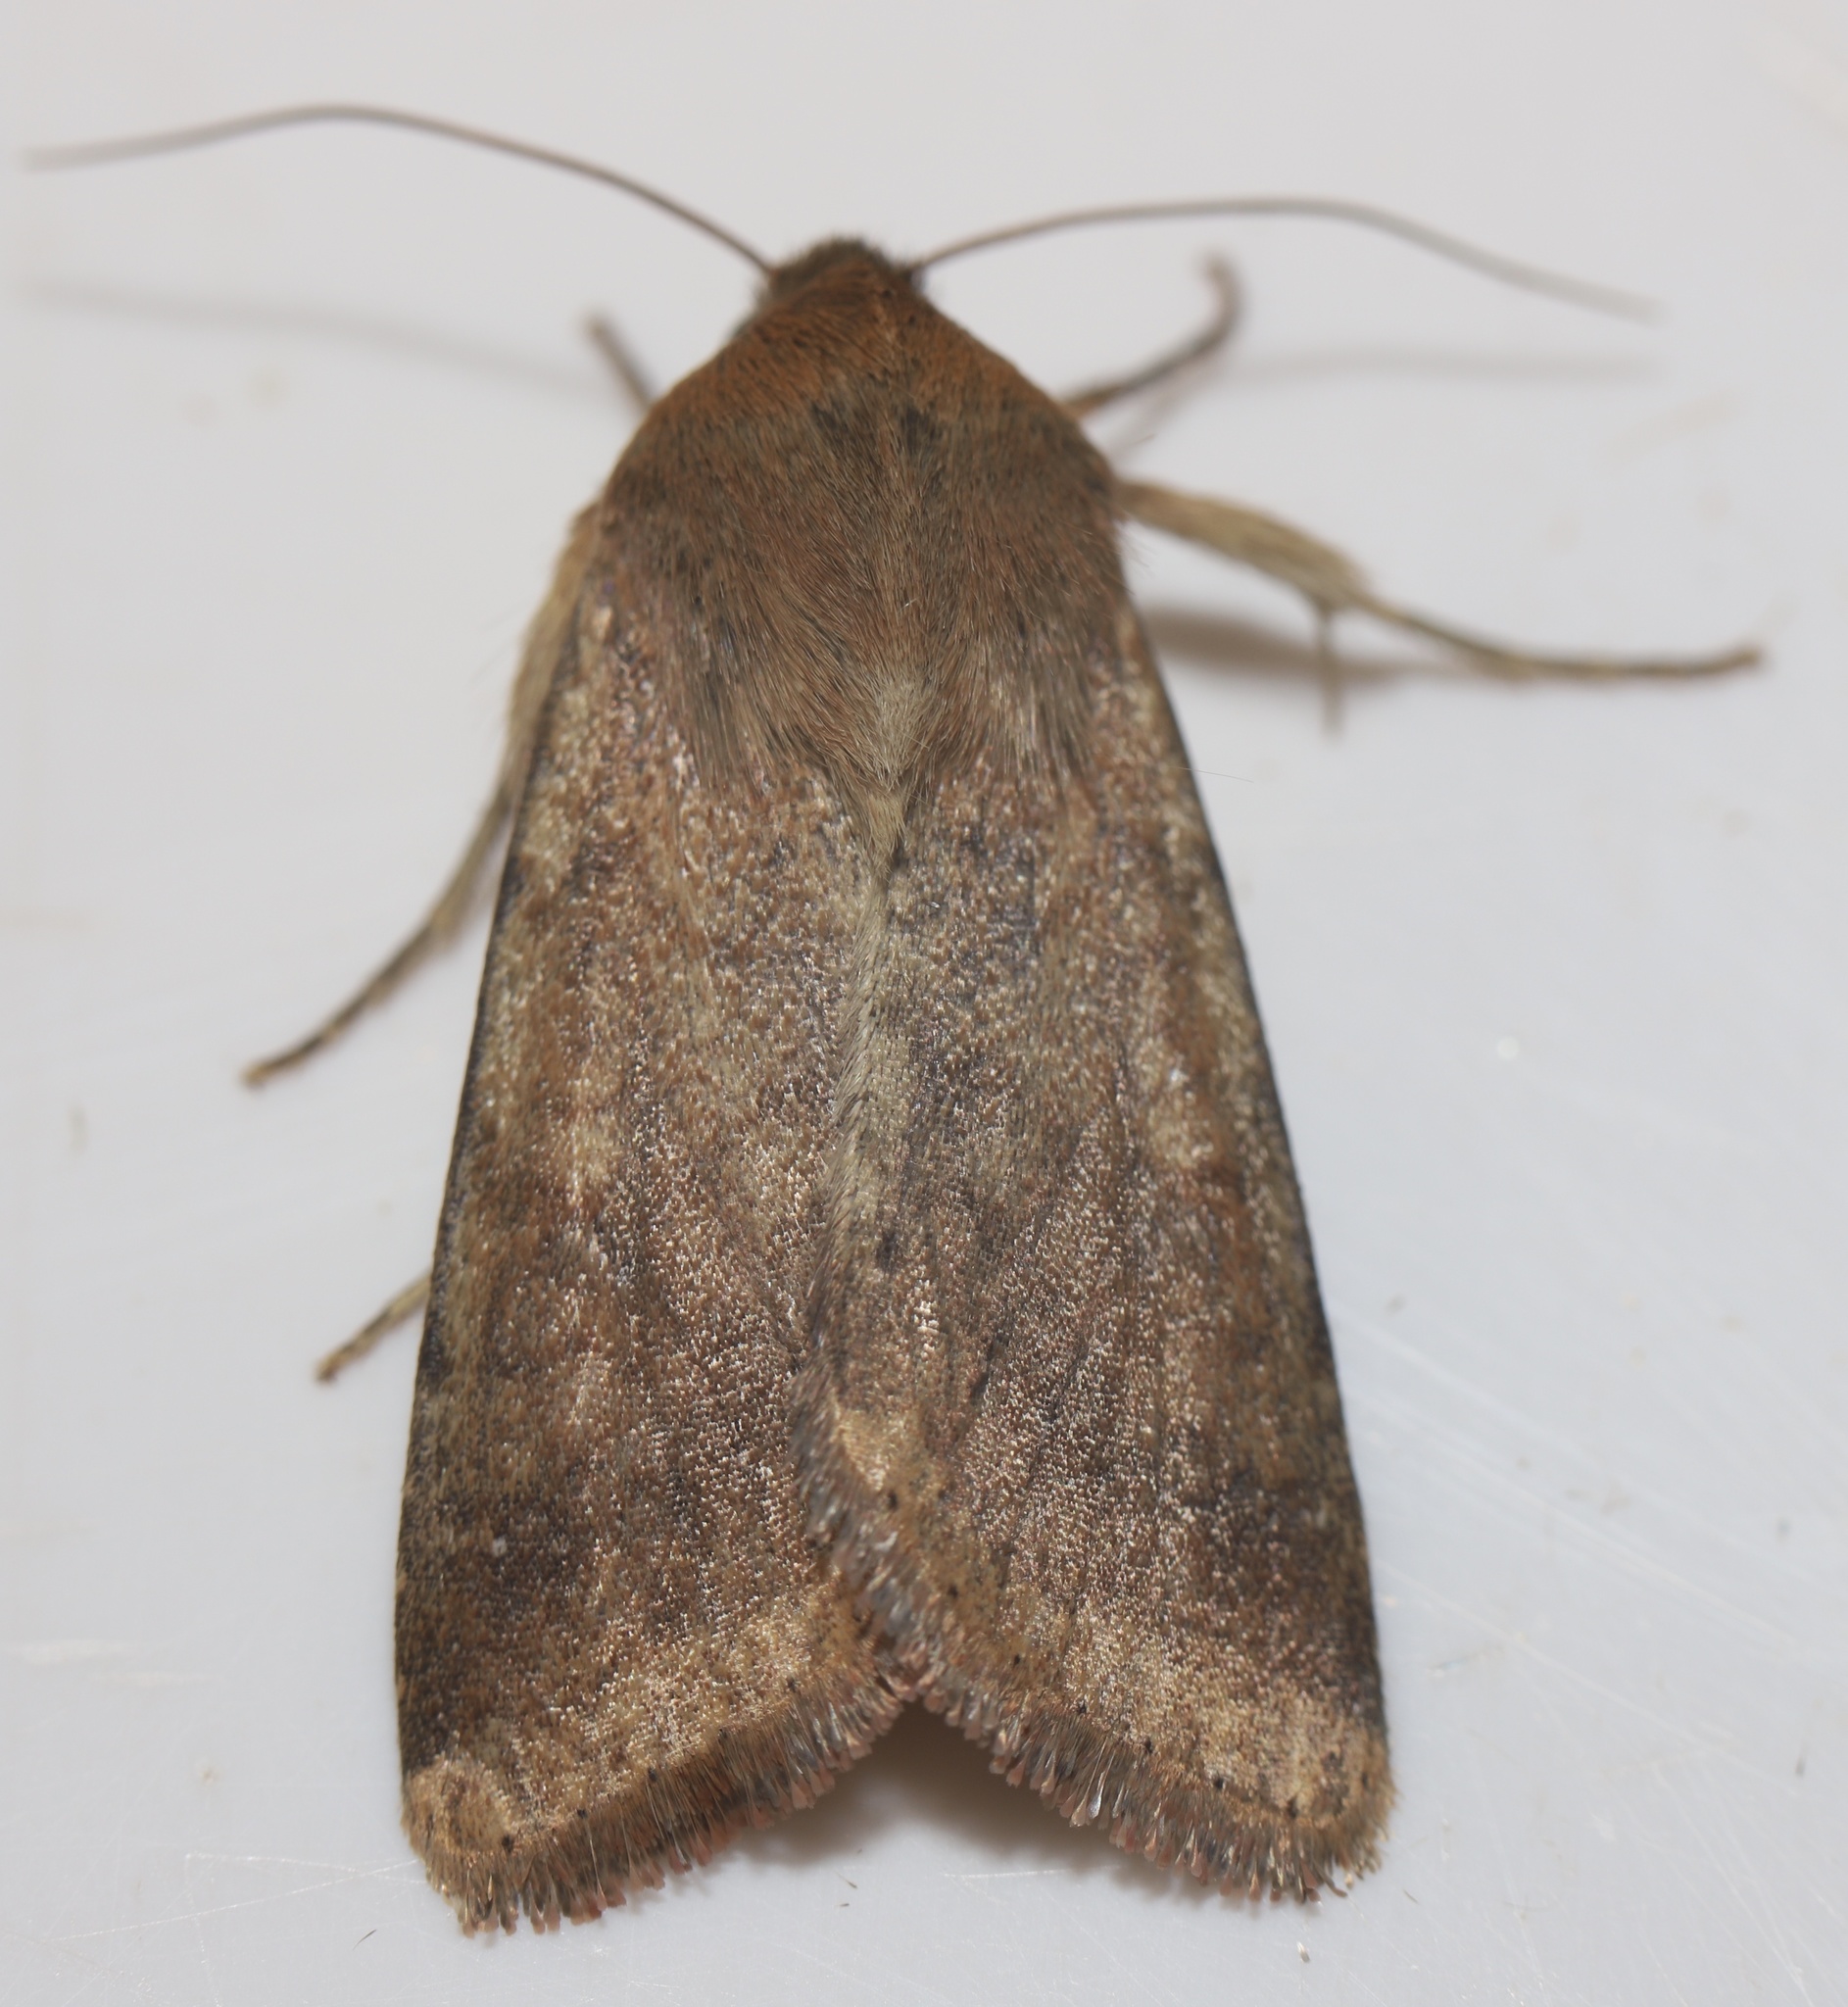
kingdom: Animalia
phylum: Arthropoda
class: Insecta
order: Lepidoptera
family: Noctuidae
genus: Helicoverpa
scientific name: Helicoverpa zea
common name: Bollworm
